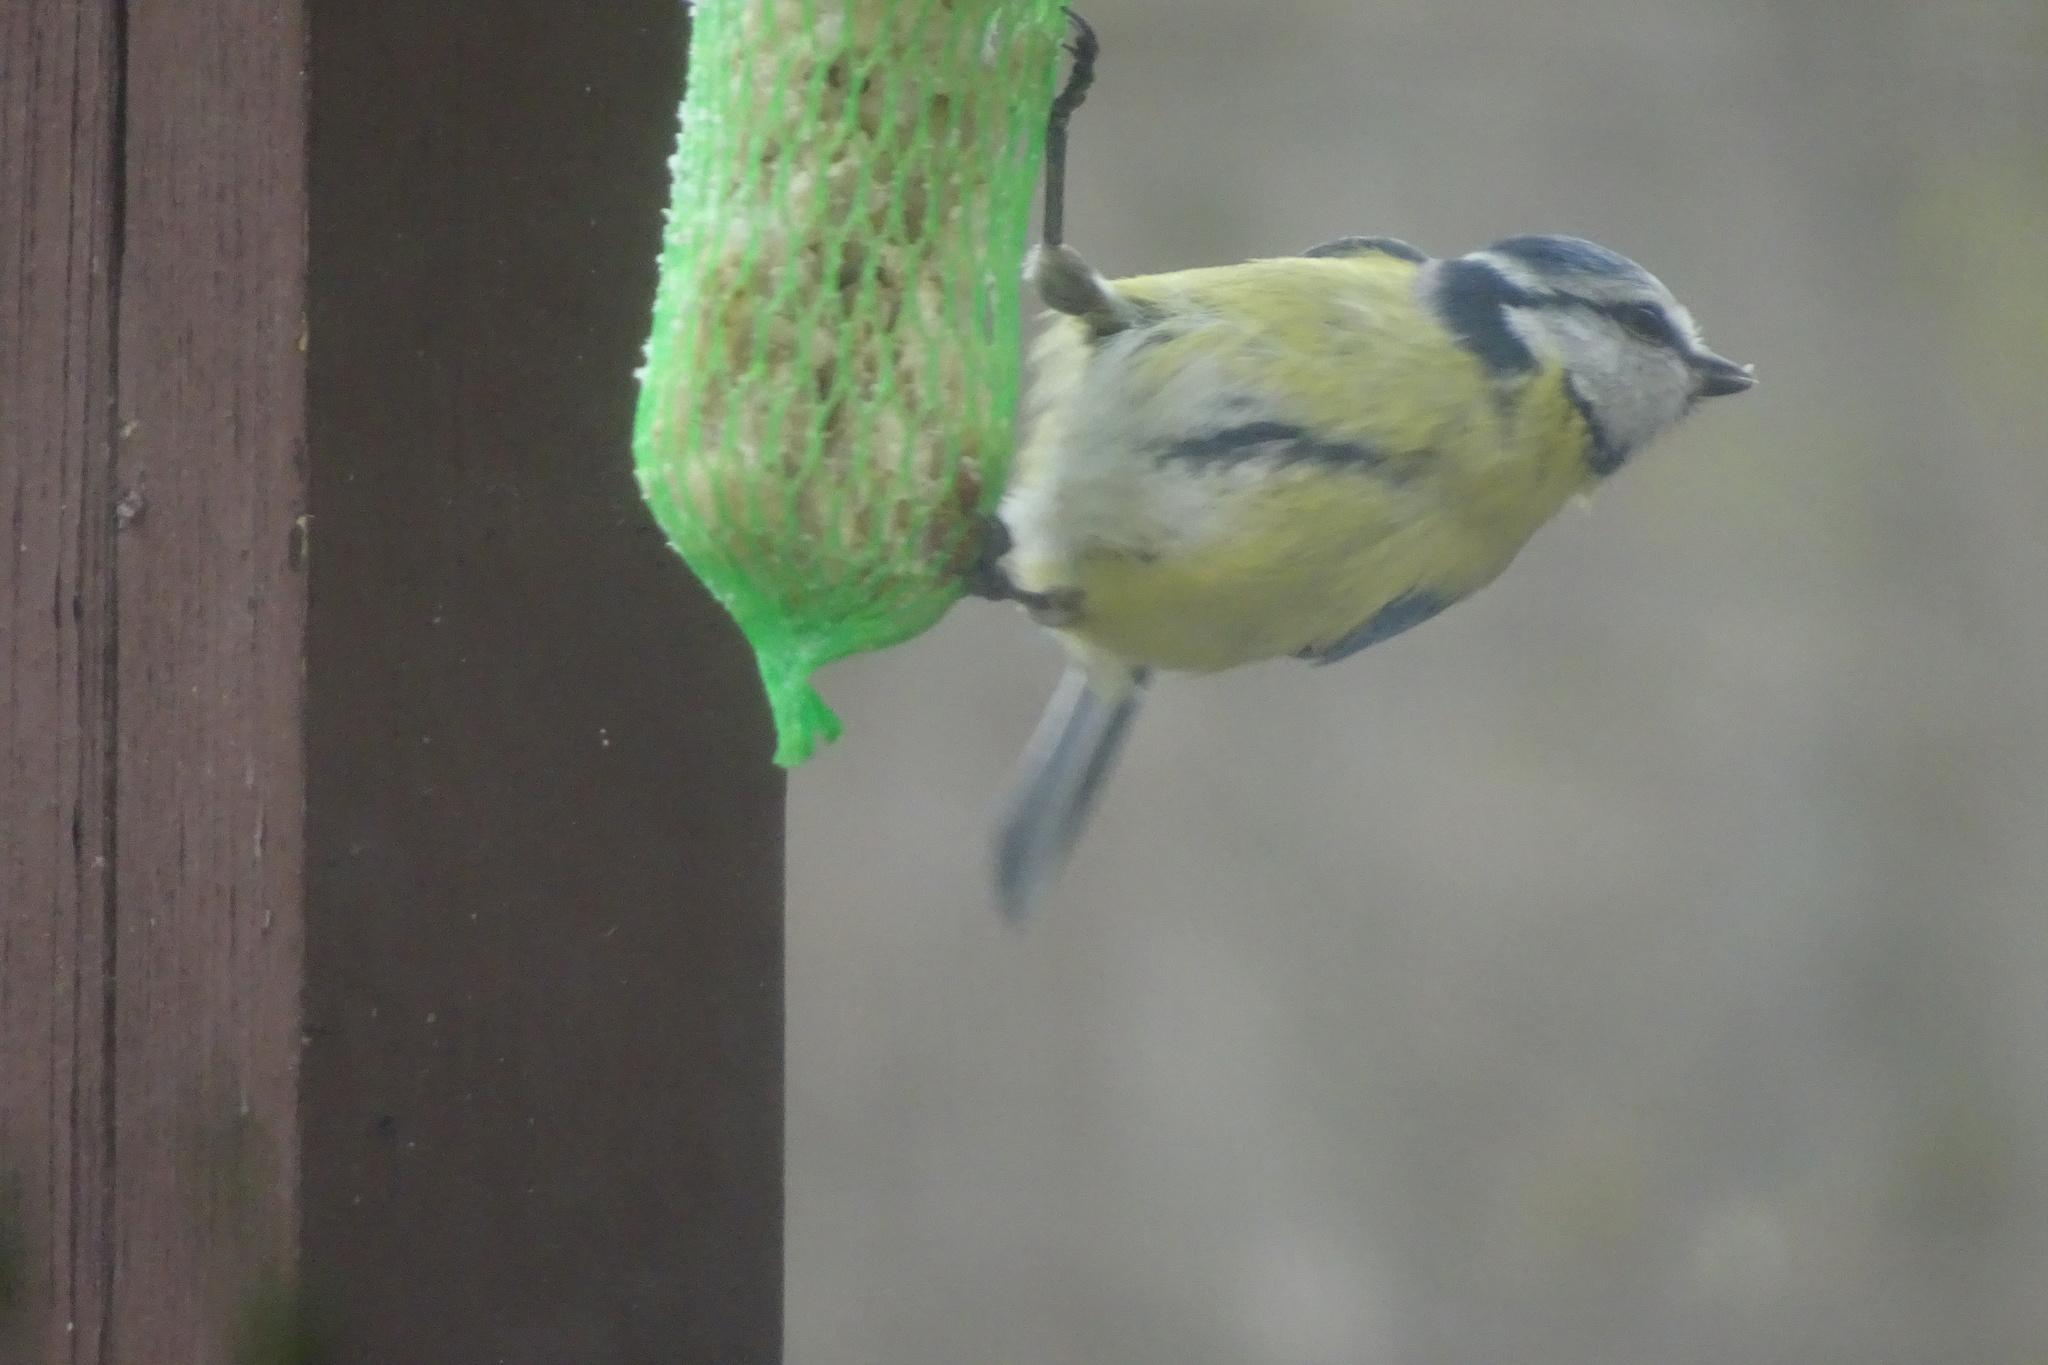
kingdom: Animalia
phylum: Chordata
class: Aves
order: Passeriformes
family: Paridae
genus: Cyanistes
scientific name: Cyanistes caeruleus
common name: Eurasian blue tit
